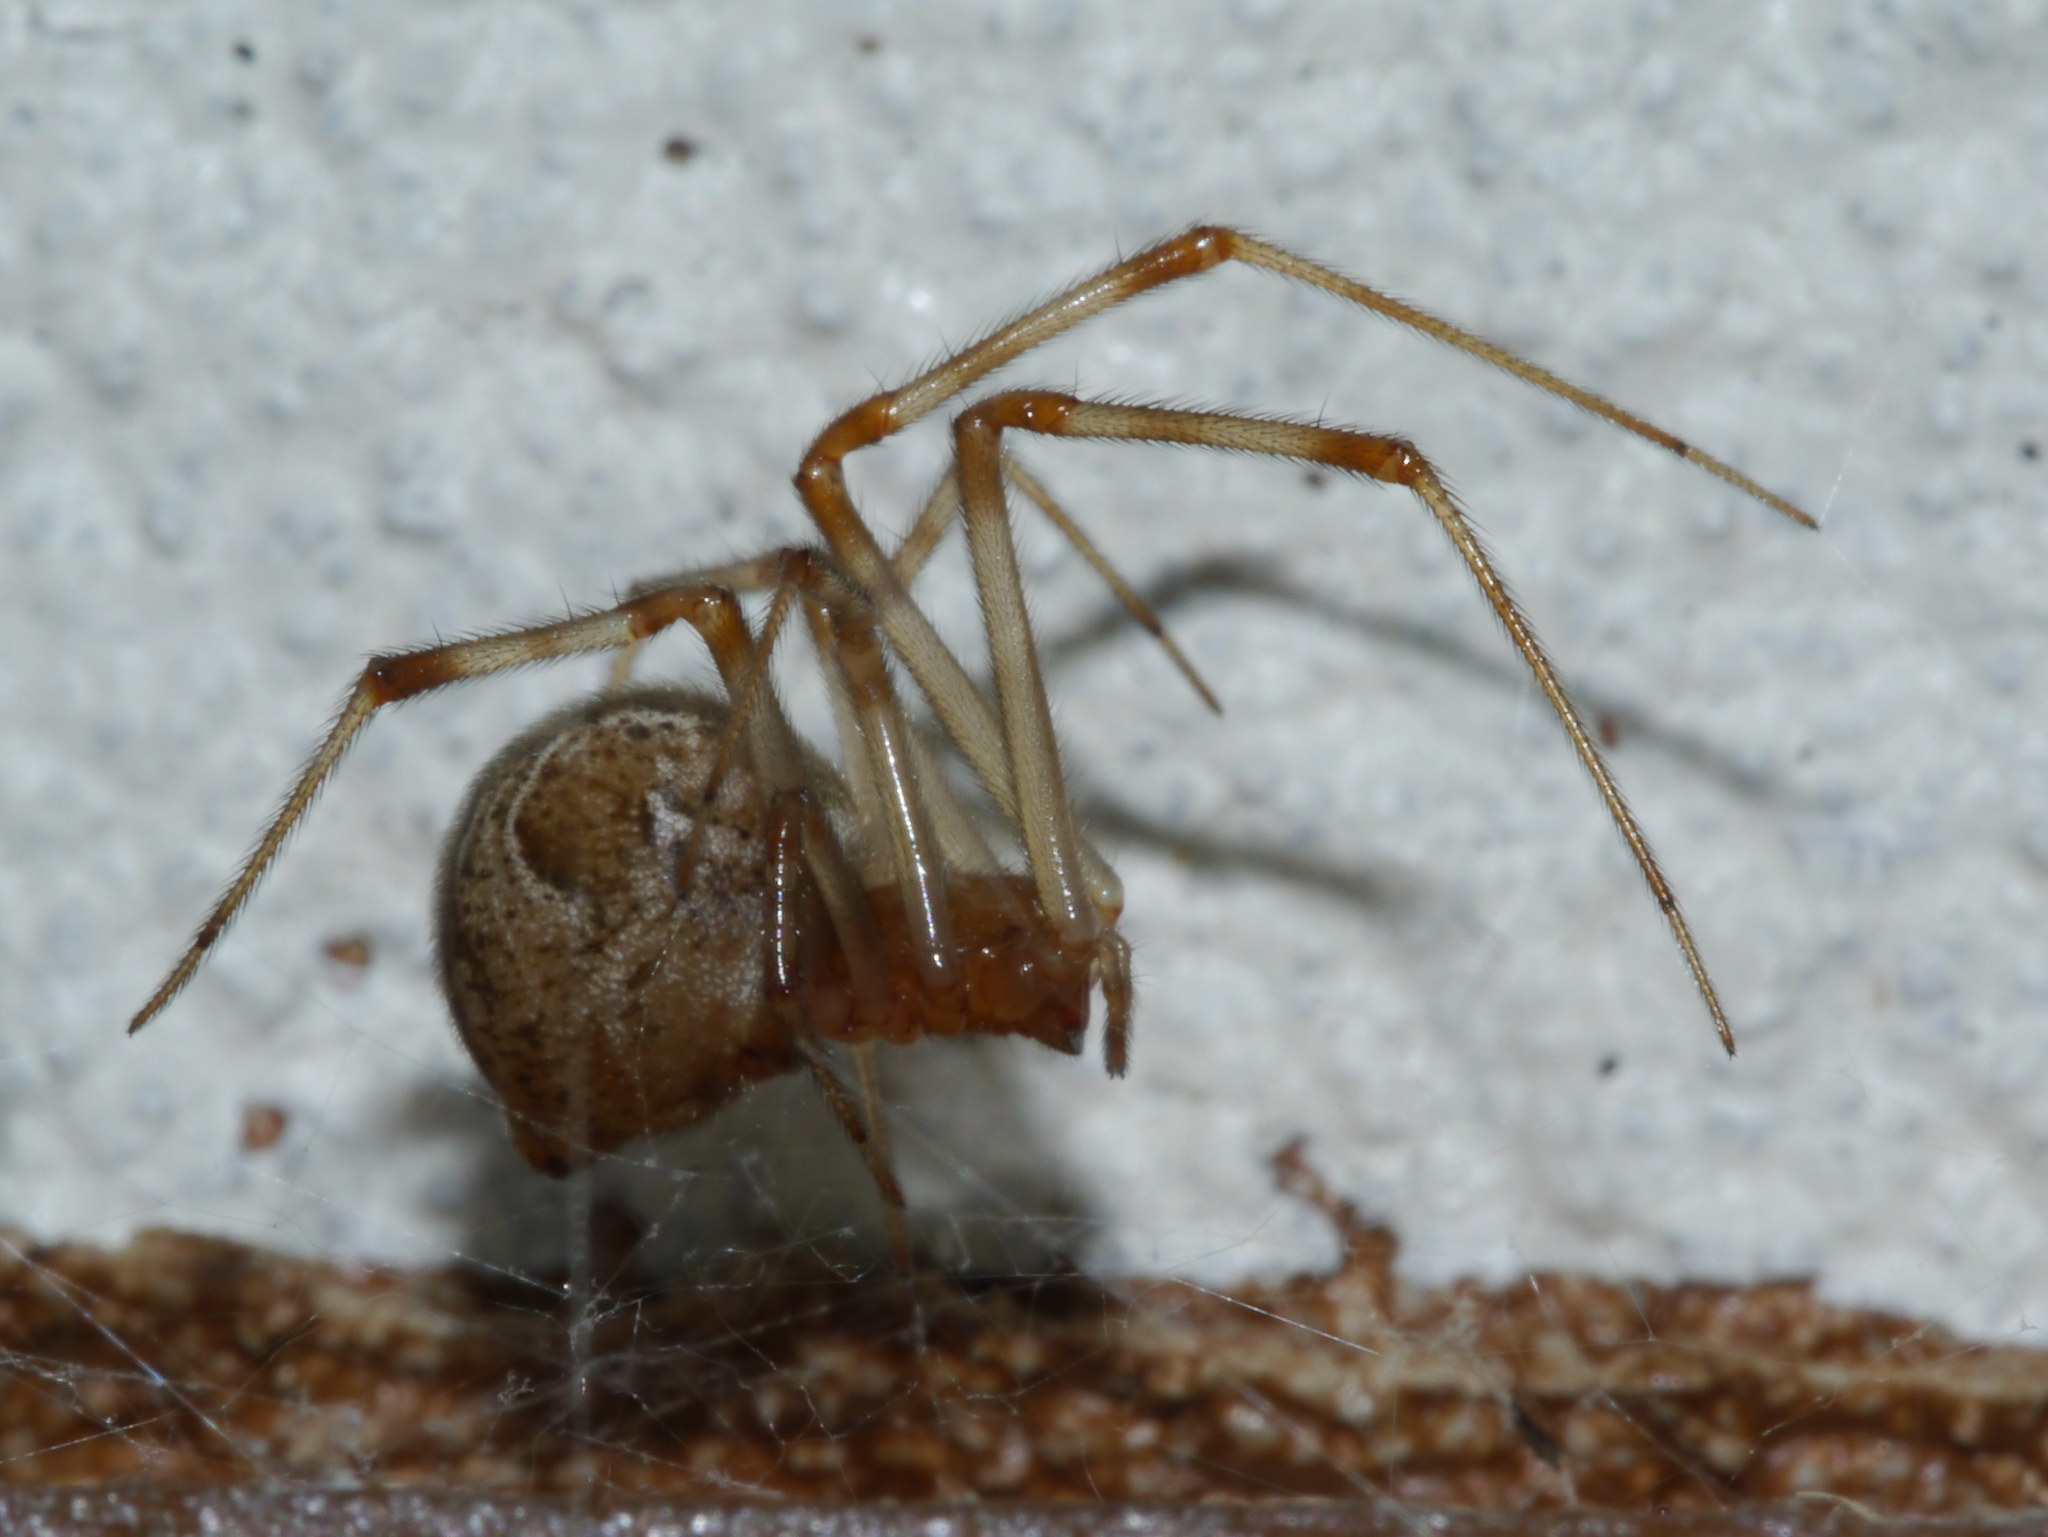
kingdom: Animalia
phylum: Arthropoda
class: Arachnida
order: Araneae
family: Theridiidae
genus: Parasteatoda
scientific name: Parasteatoda tepidariorum
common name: Common house spider
